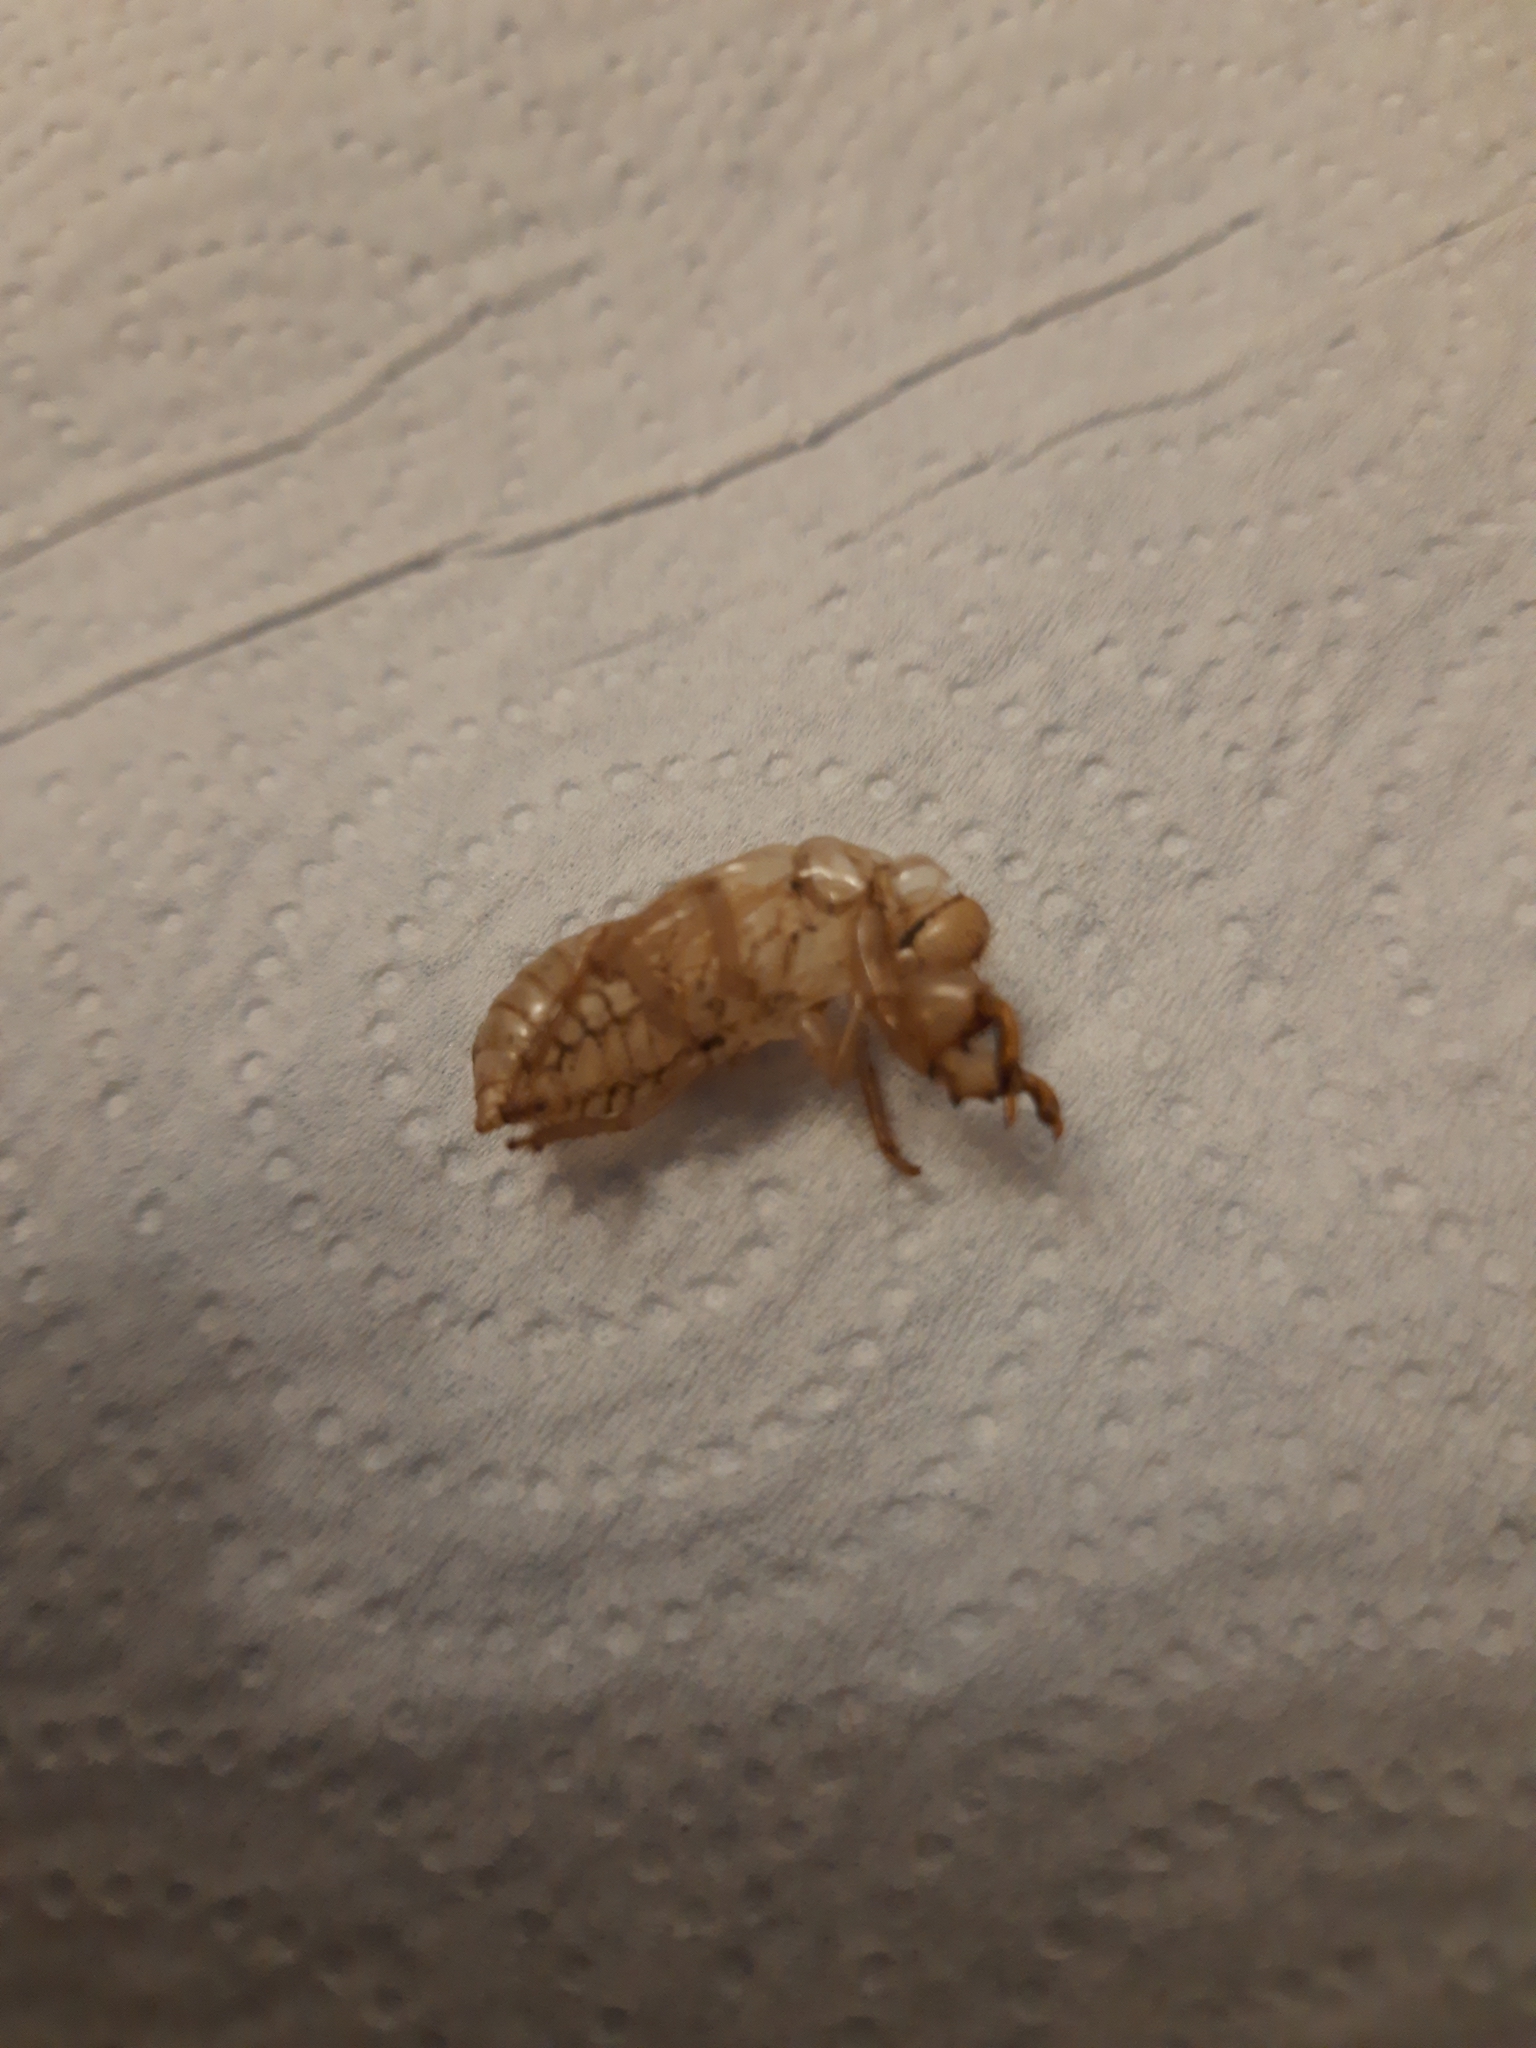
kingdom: Animalia
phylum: Arthropoda
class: Insecta
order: Hemiptera
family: Cicadidae
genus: Cicada
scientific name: Cicada orni
